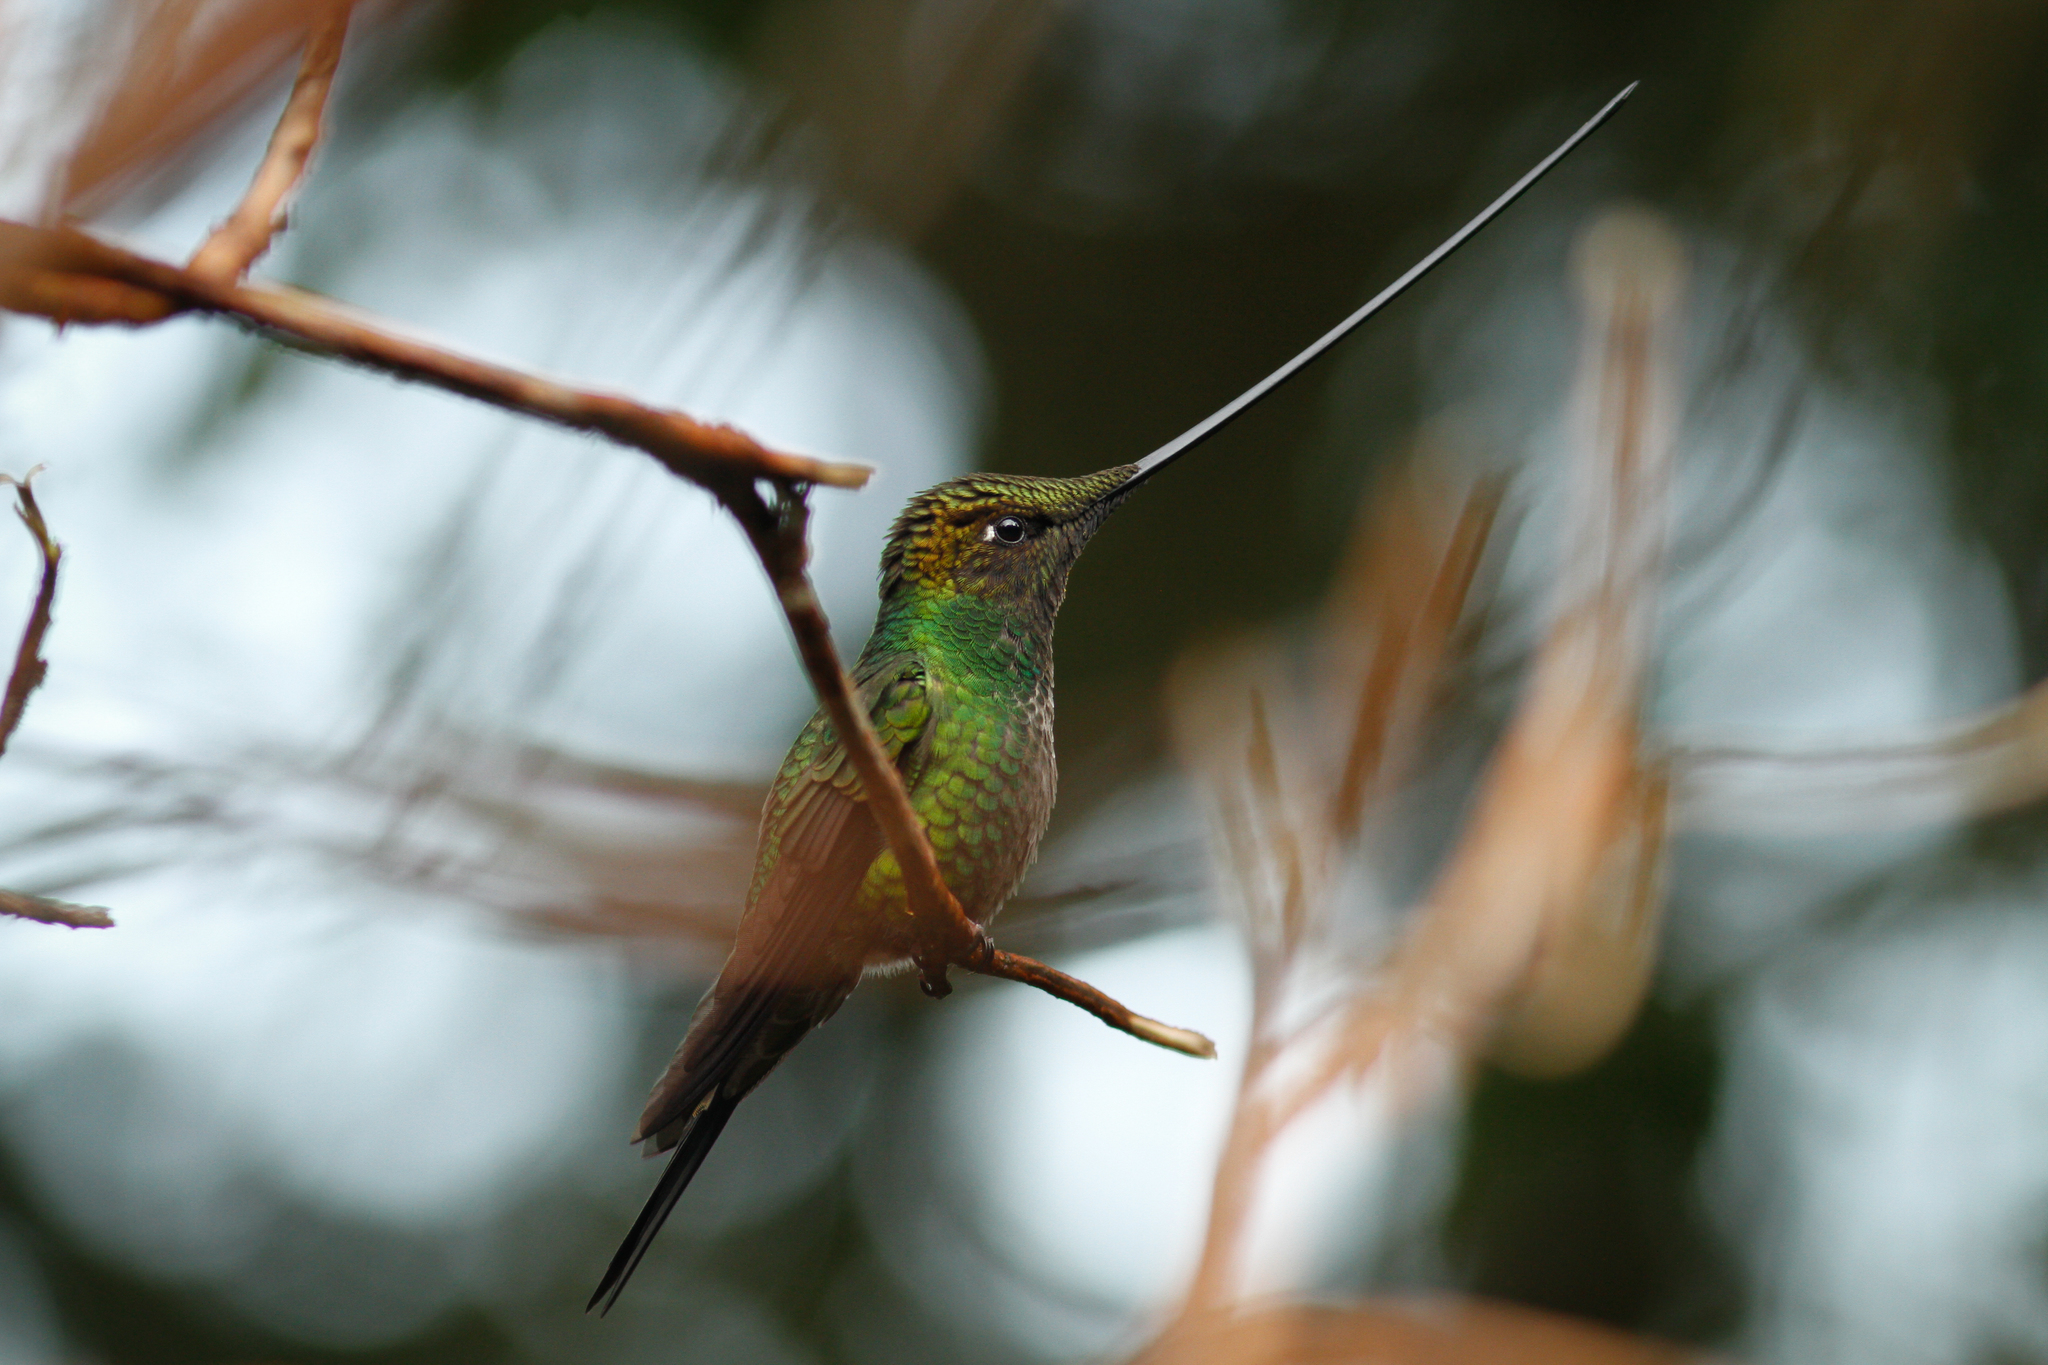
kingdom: Animalia
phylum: Chordata
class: Aves
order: Apodiformes
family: Trochilidae
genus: Ensifera
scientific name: Ensifera ensifera
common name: Sword-billed hummingbird
